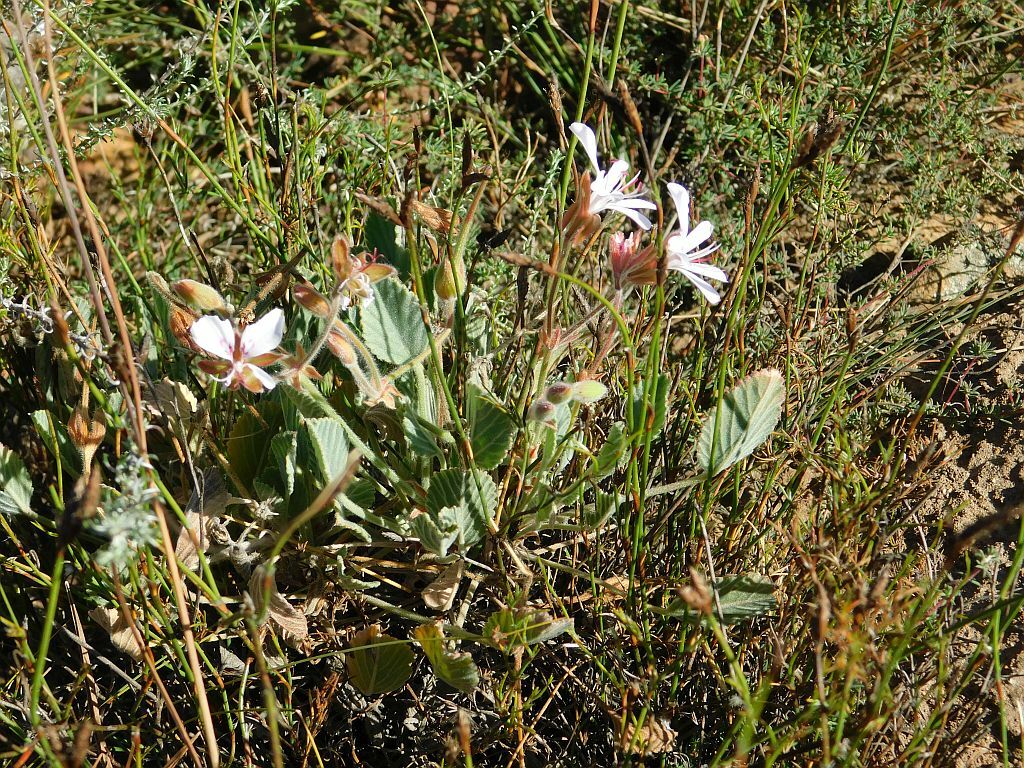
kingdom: Plantae
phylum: Tracheophyta
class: Magnoliopsida
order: Geraniales
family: Geraniaceae
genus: Pelargonium
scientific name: Pelargonium ovale
